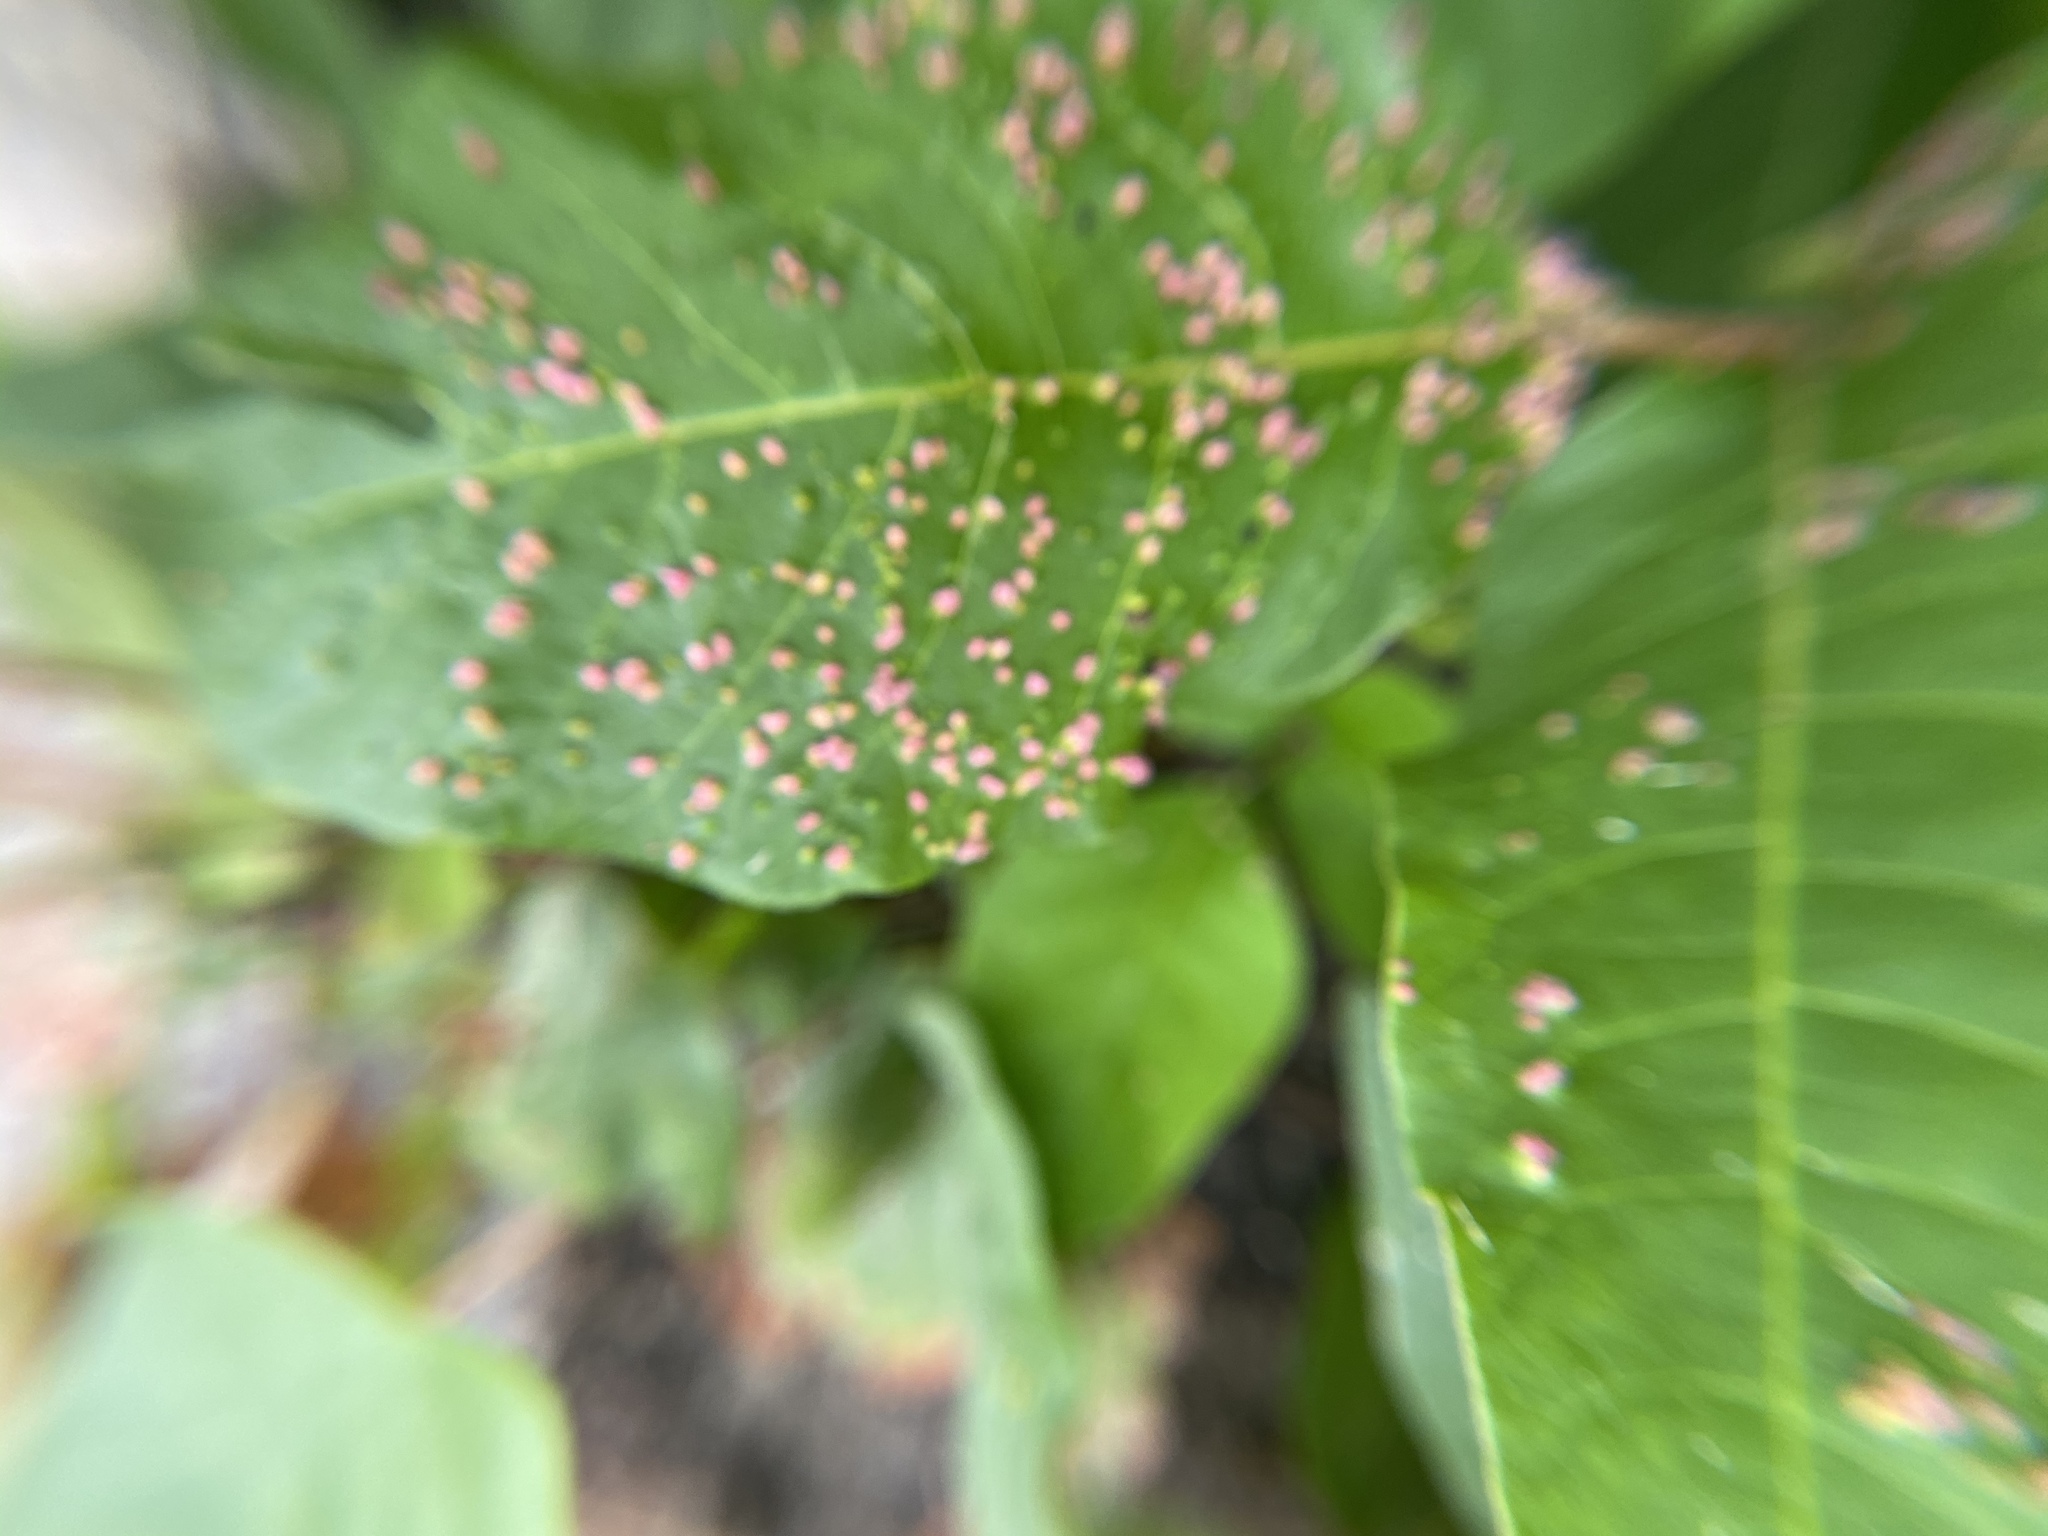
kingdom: Animalia
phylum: Arthropoda
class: Arachnida
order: Trombidiformes
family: Eriophyidae
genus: Aculops
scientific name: Aculops
